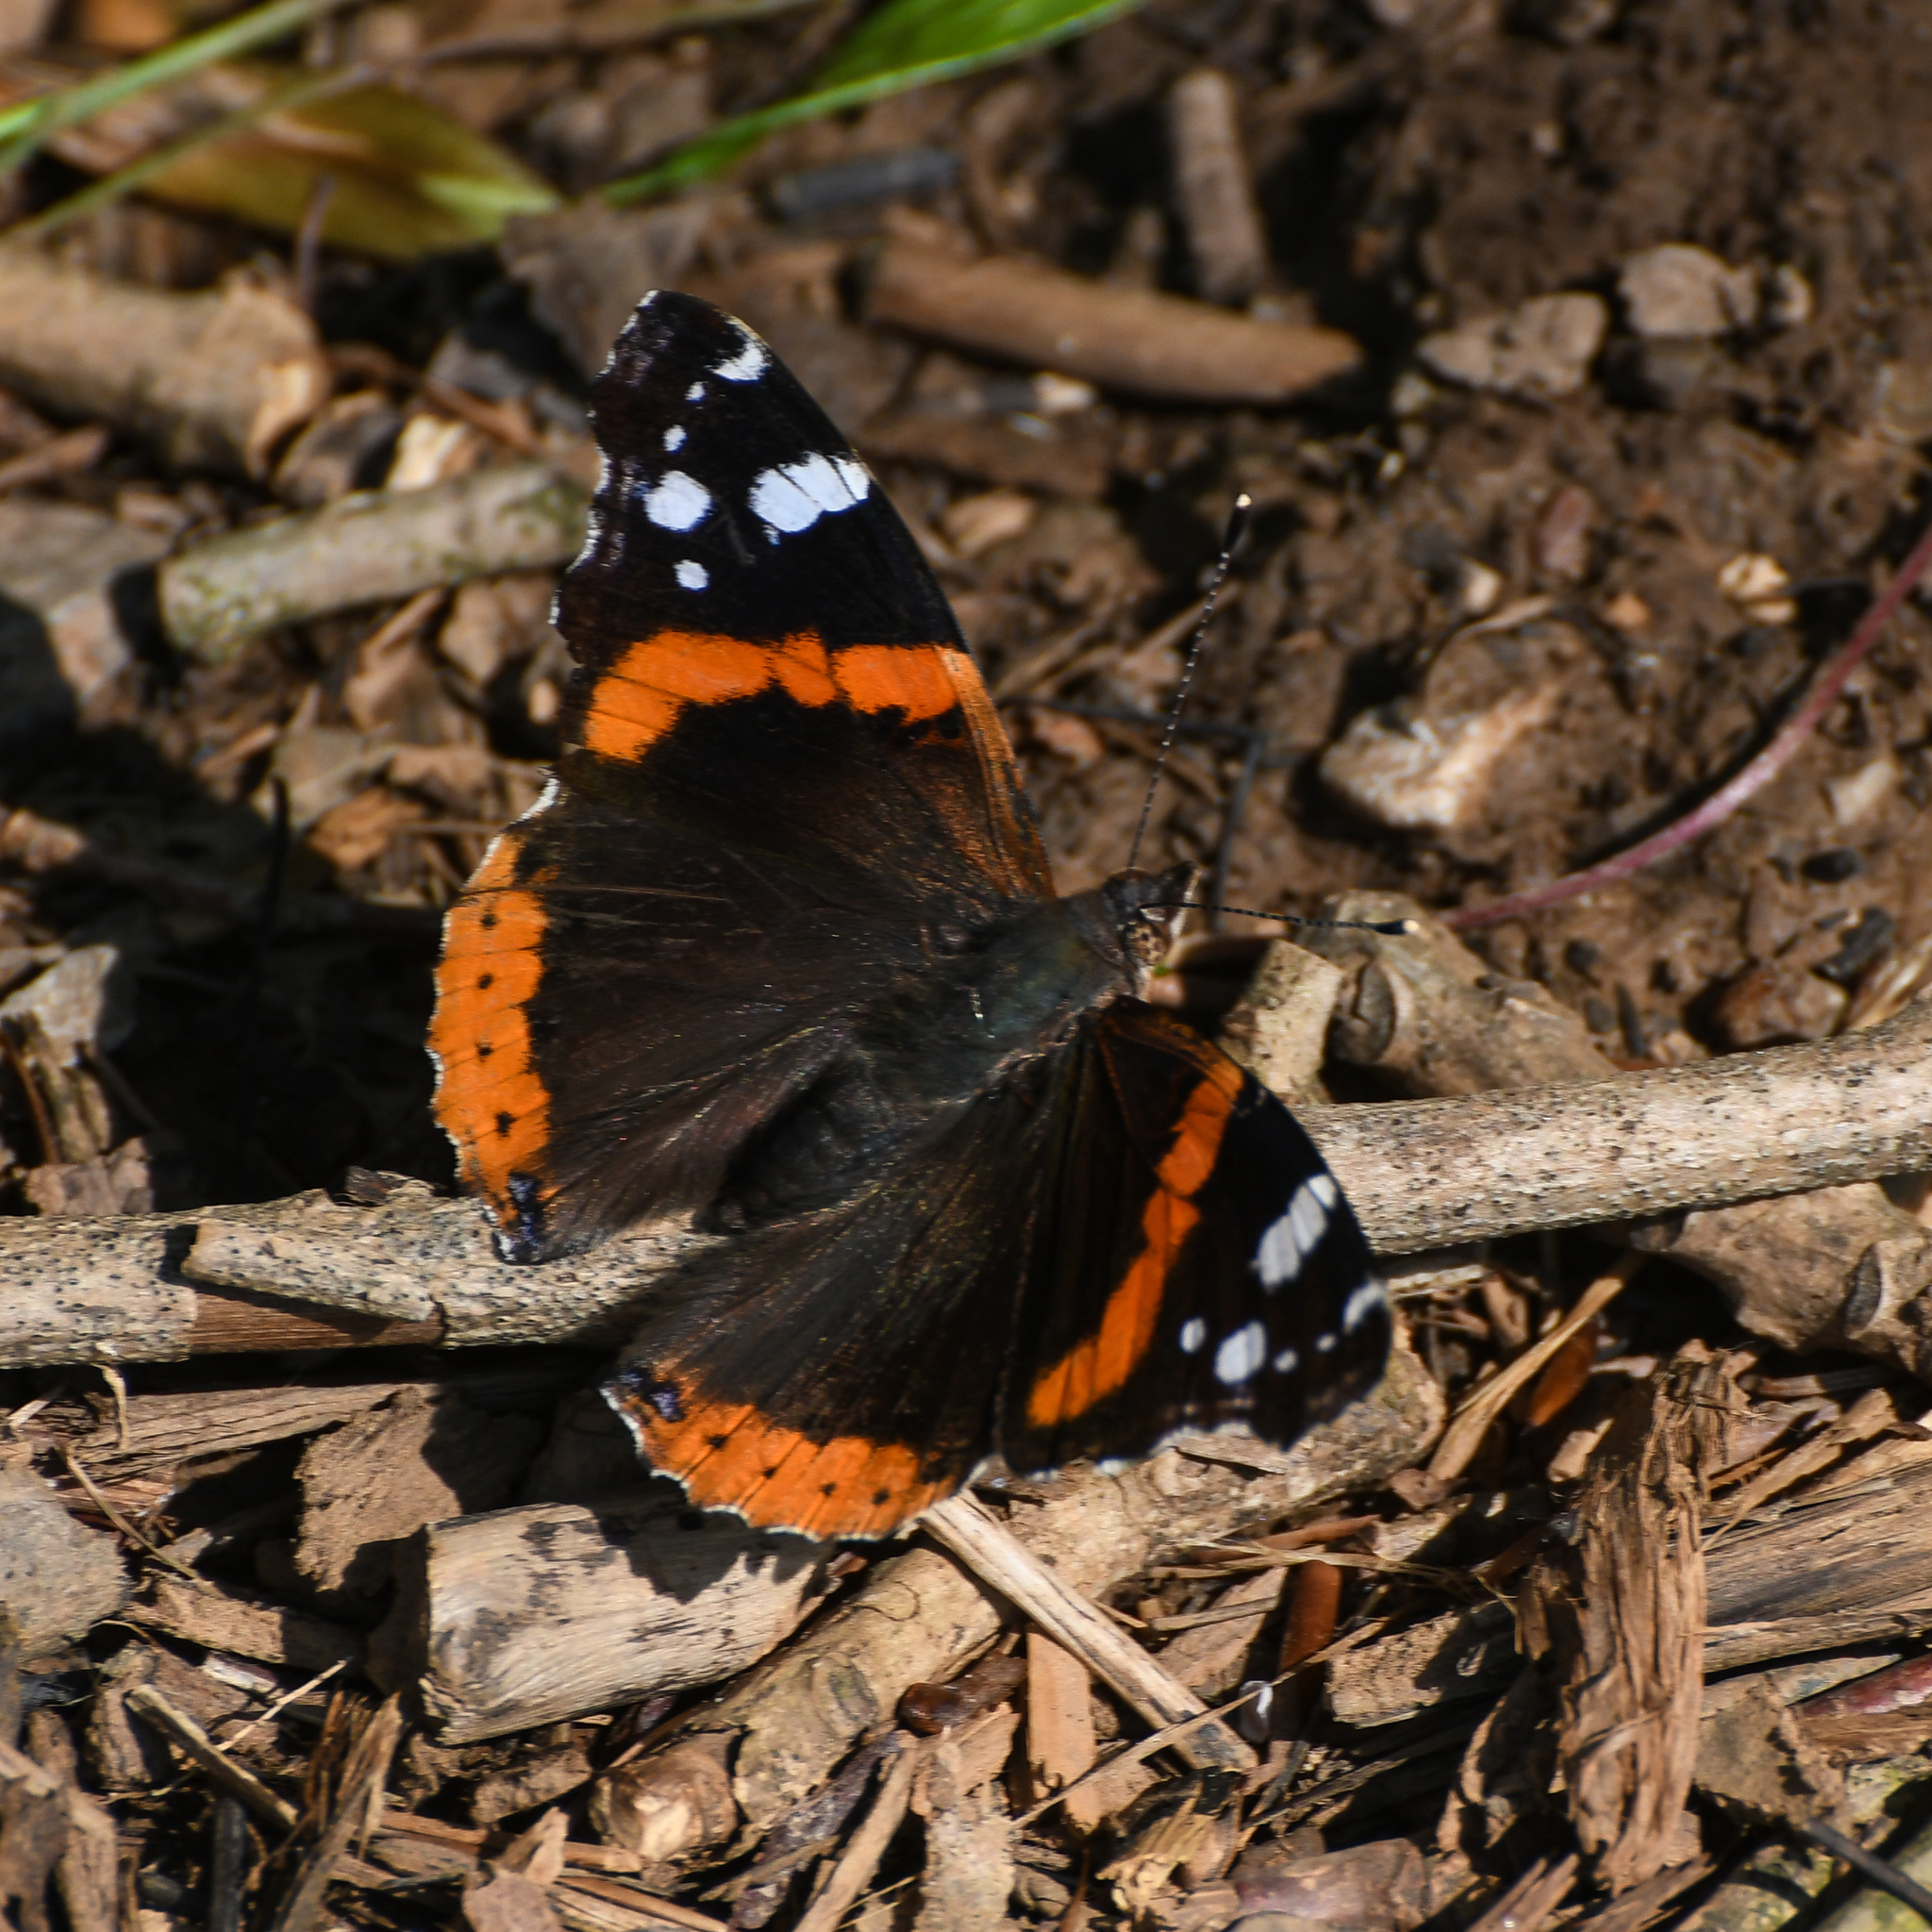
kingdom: Animalia
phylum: Arthropoda
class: Insecta
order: Lepidoptera
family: Nymphalidae
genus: Vanessa
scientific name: Vanessa atalanta
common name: Red admiral
